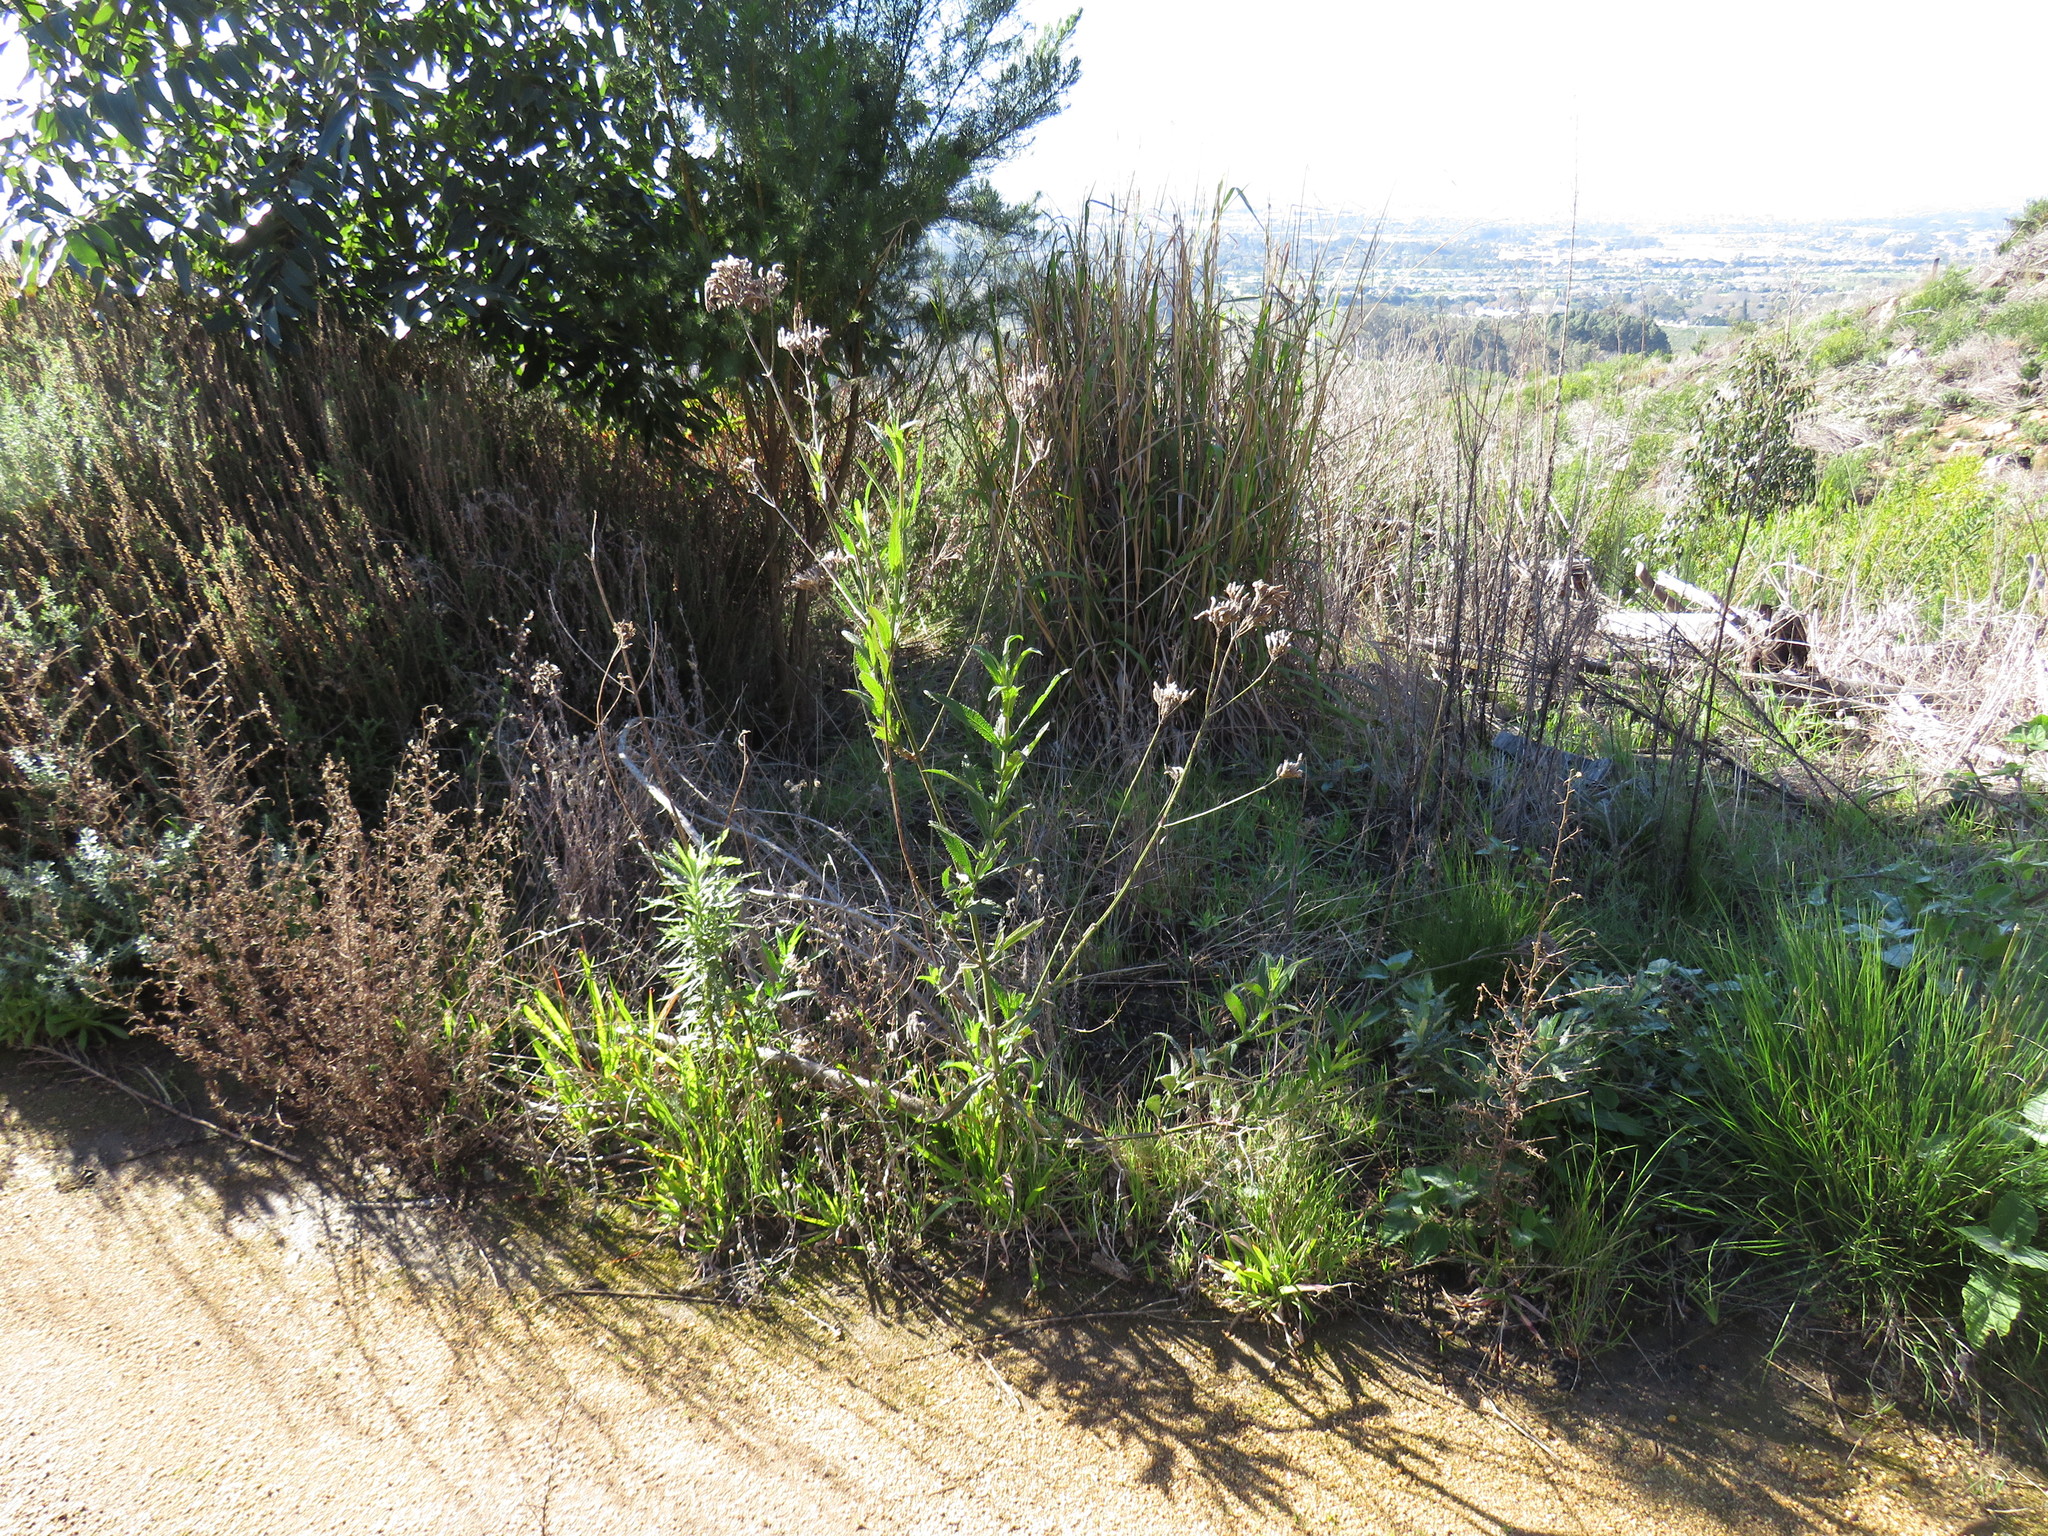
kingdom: Plantae
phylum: Tracheophyta
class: Magnoliopsida
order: Lamiales
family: Verbenaceae
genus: Verbena
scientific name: Verbena bonariensis
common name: Purpletop vervain
